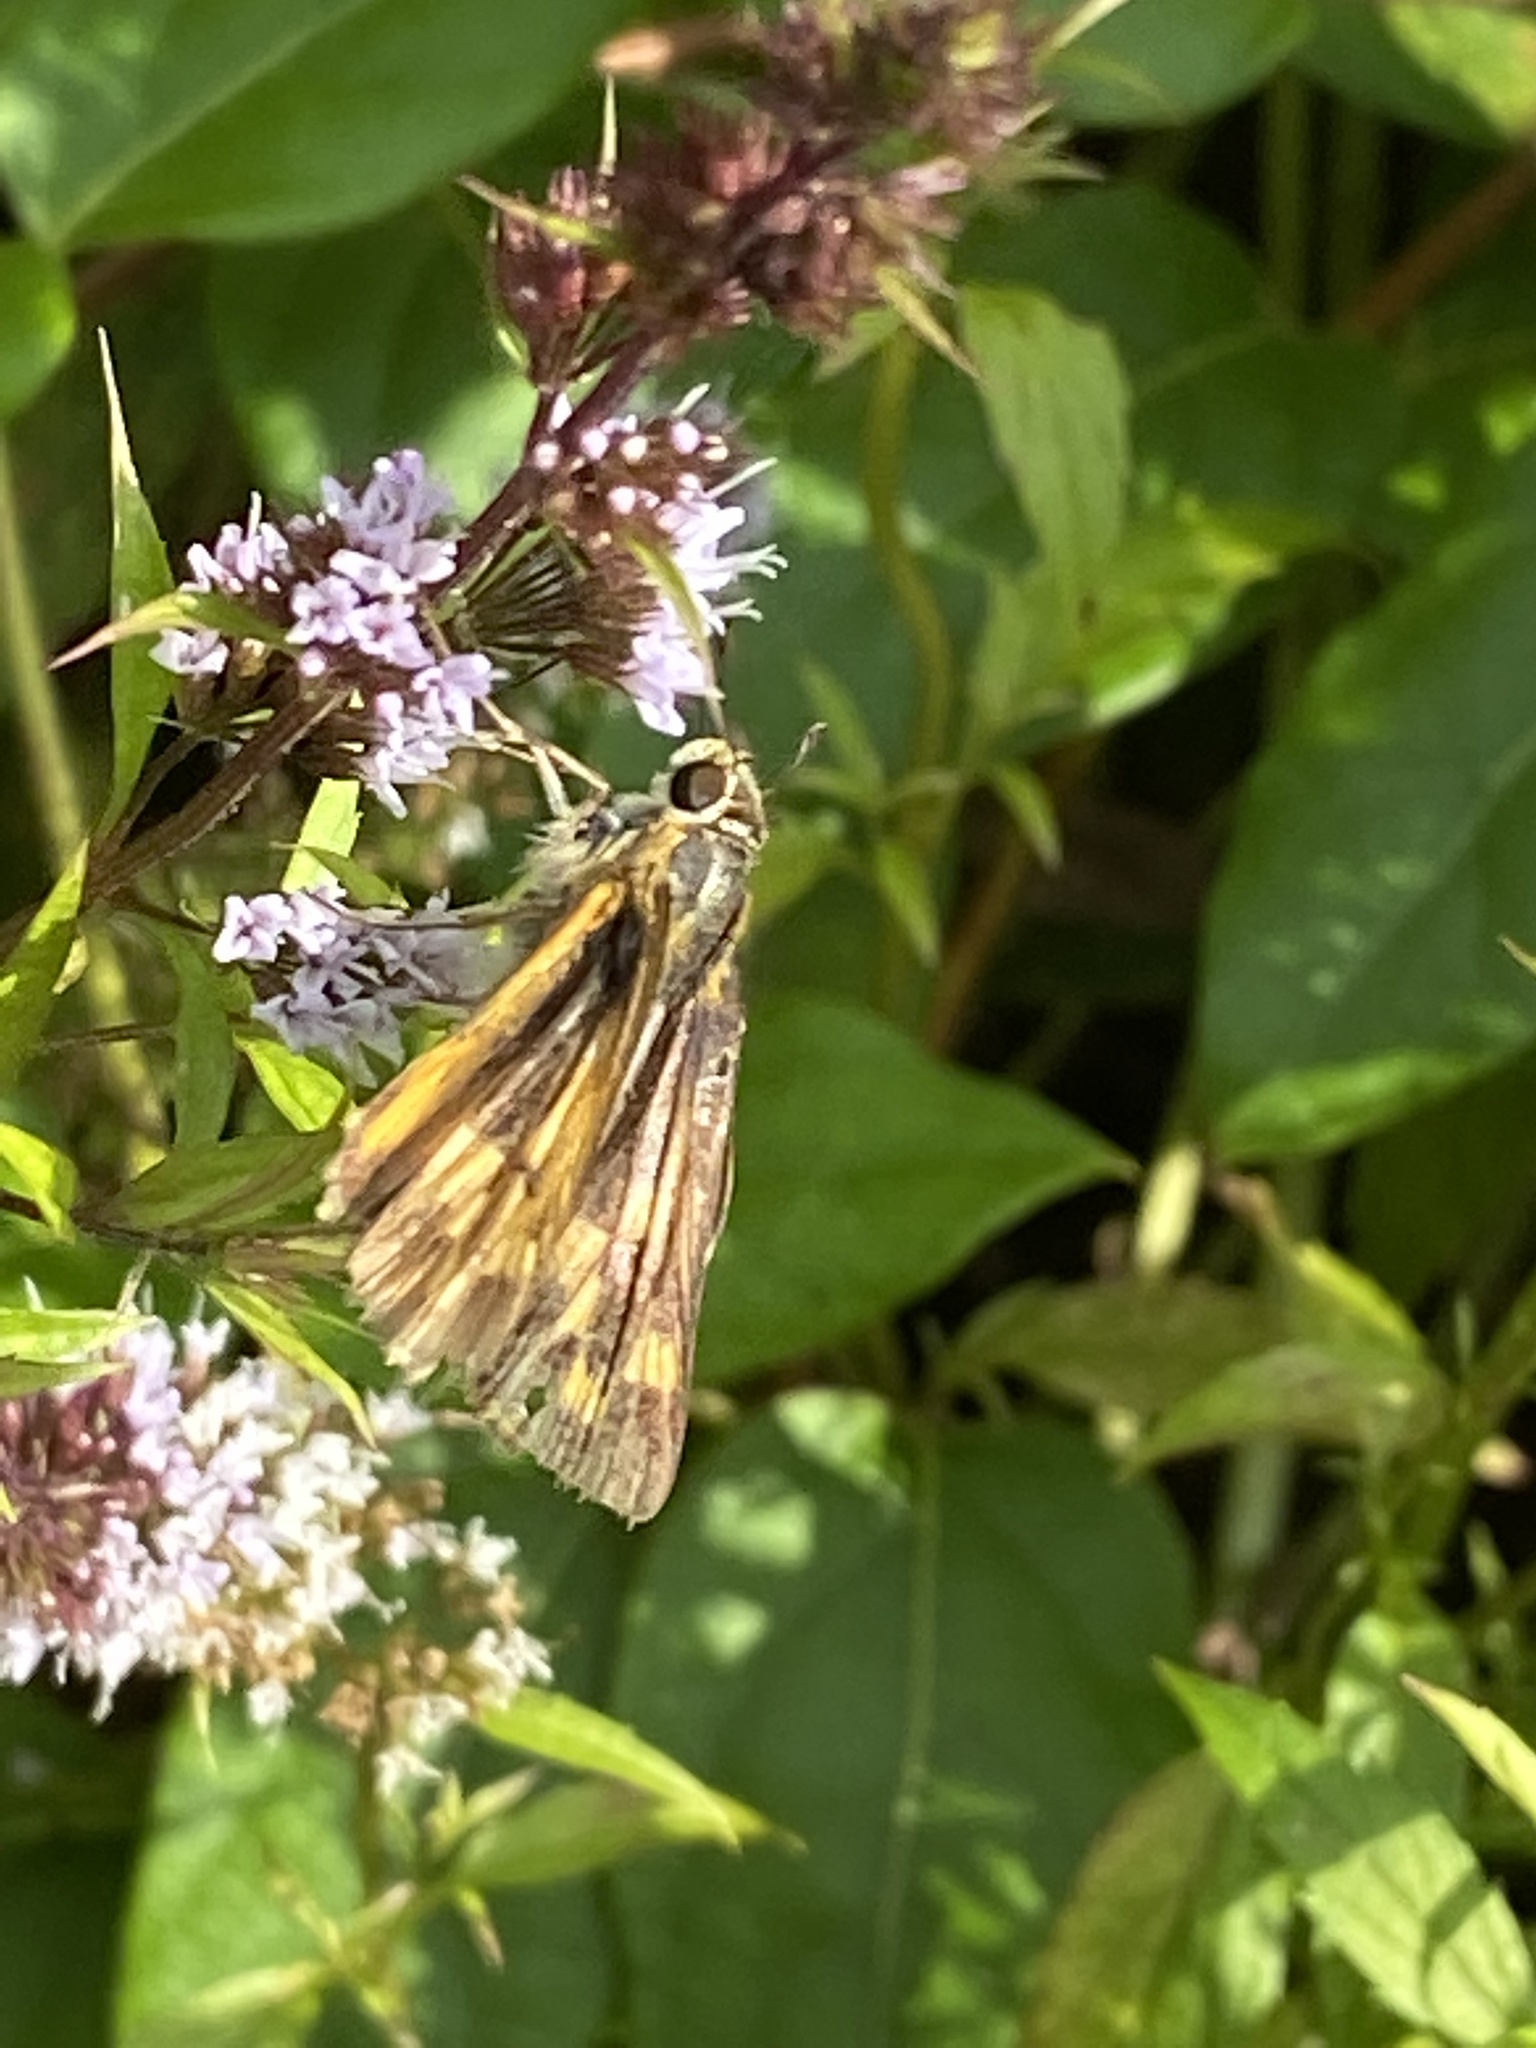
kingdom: Animalia
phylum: Arthropoda
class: Insecta
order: Lepidoptera
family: Hesperiidae
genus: Hylephila
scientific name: Hylephila phyleus
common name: Fiery skipper
